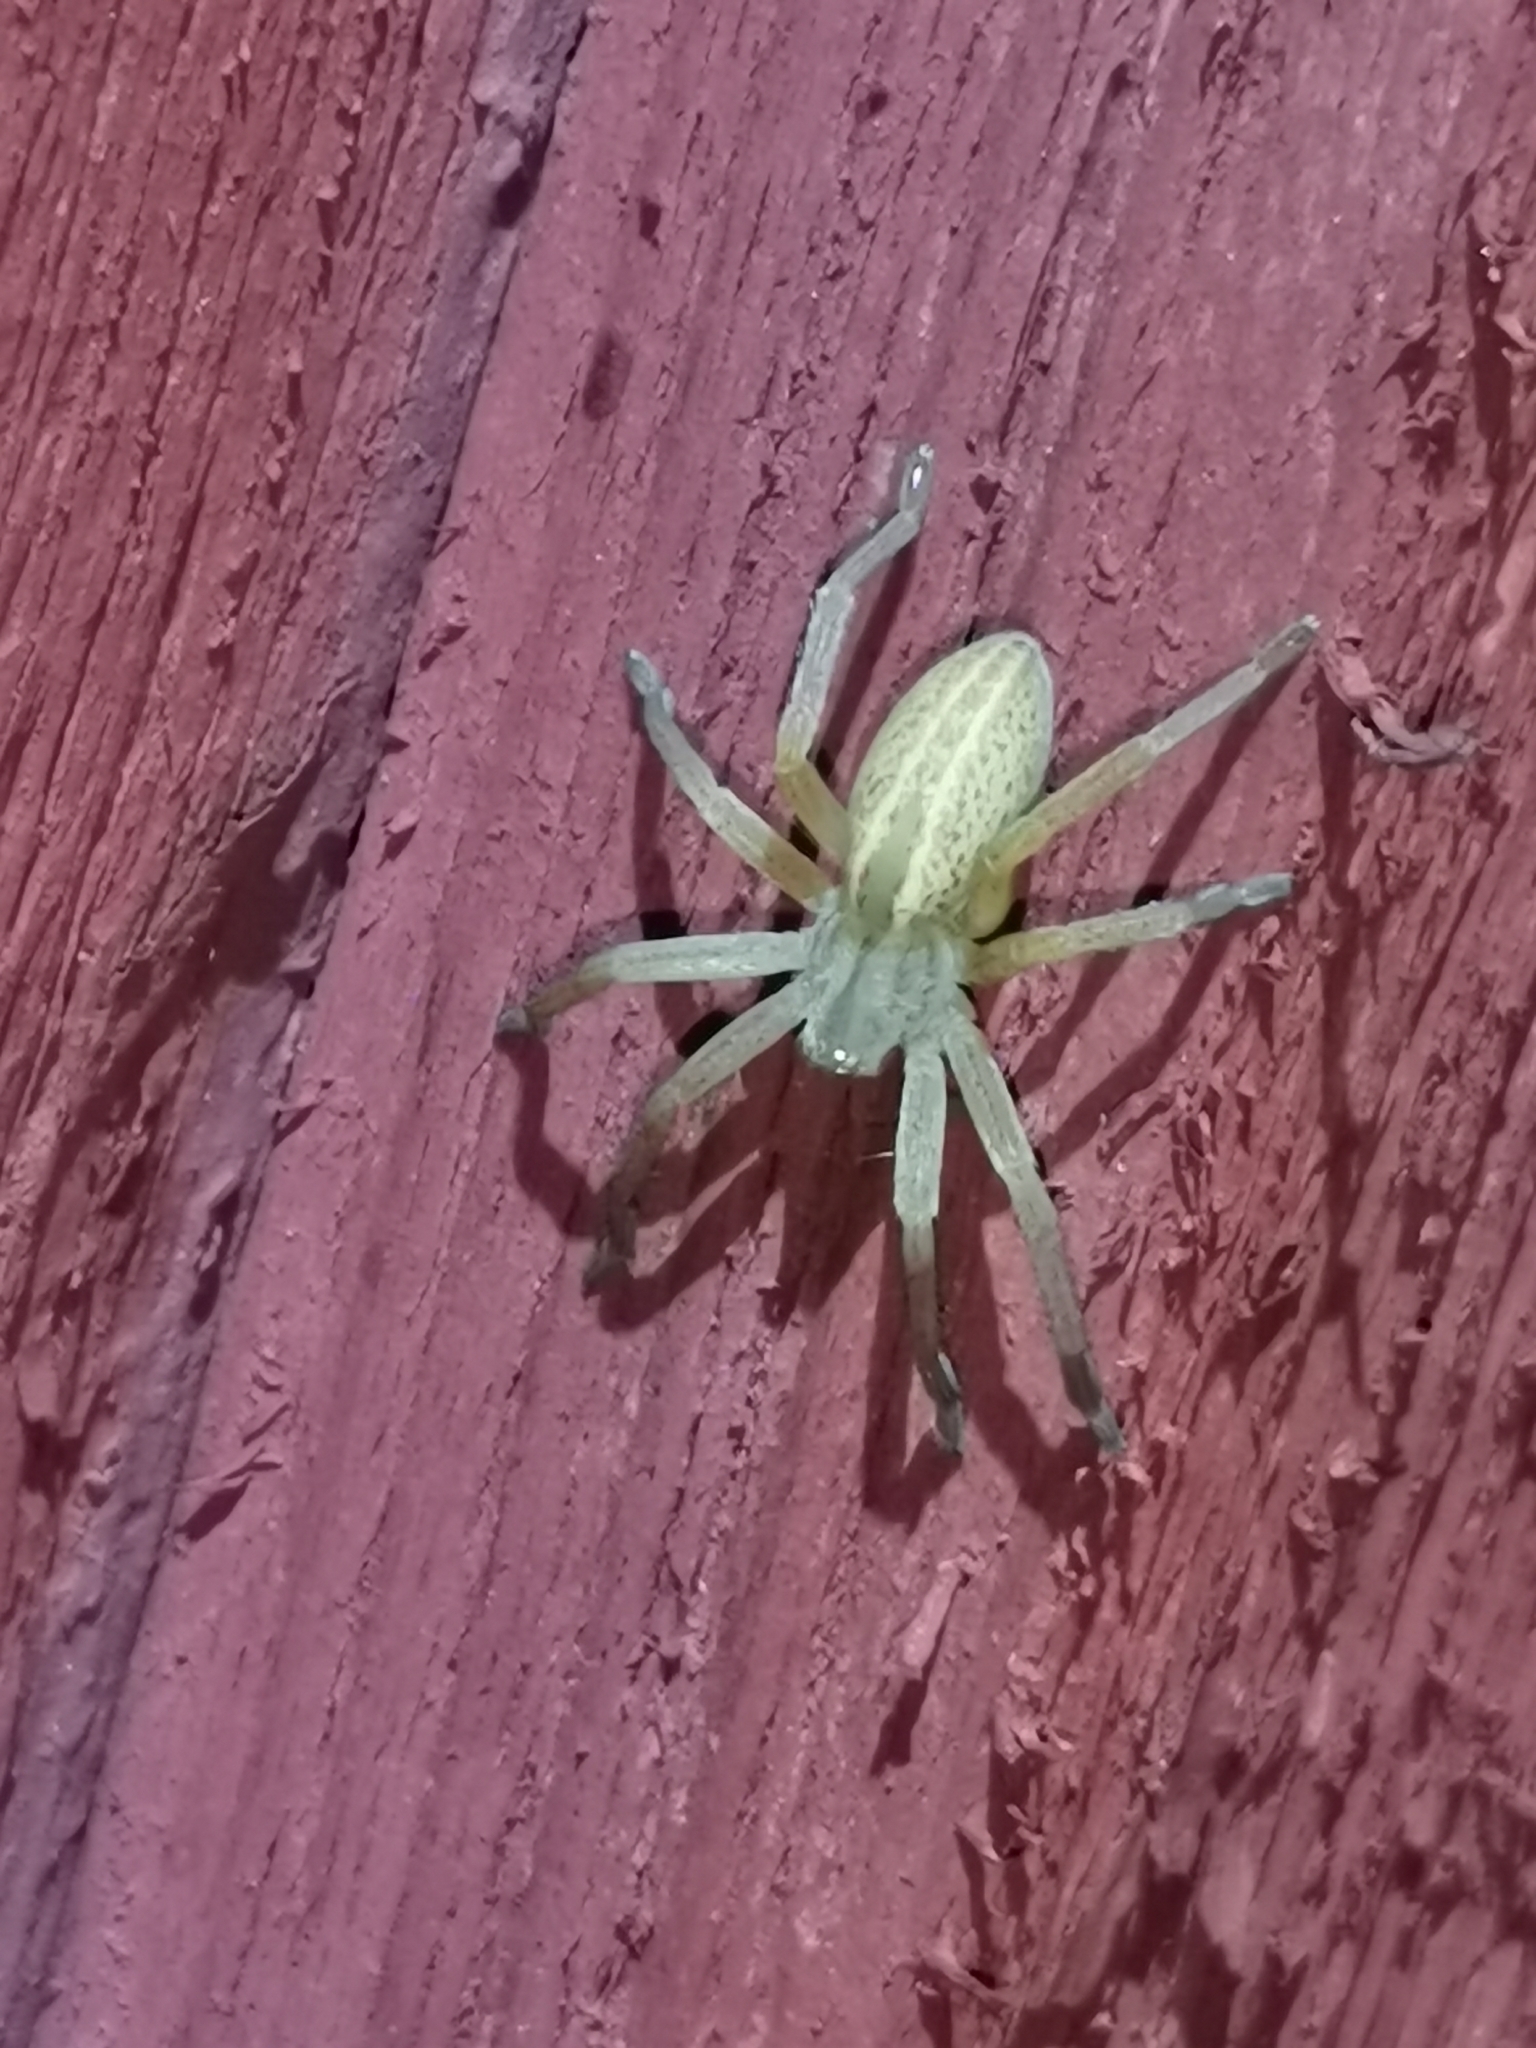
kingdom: Animalia
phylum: Arthropoda
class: Arachnida
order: Araneae
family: Sparassidae
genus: Micrommata
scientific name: Micrommata virescens
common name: Green spider
